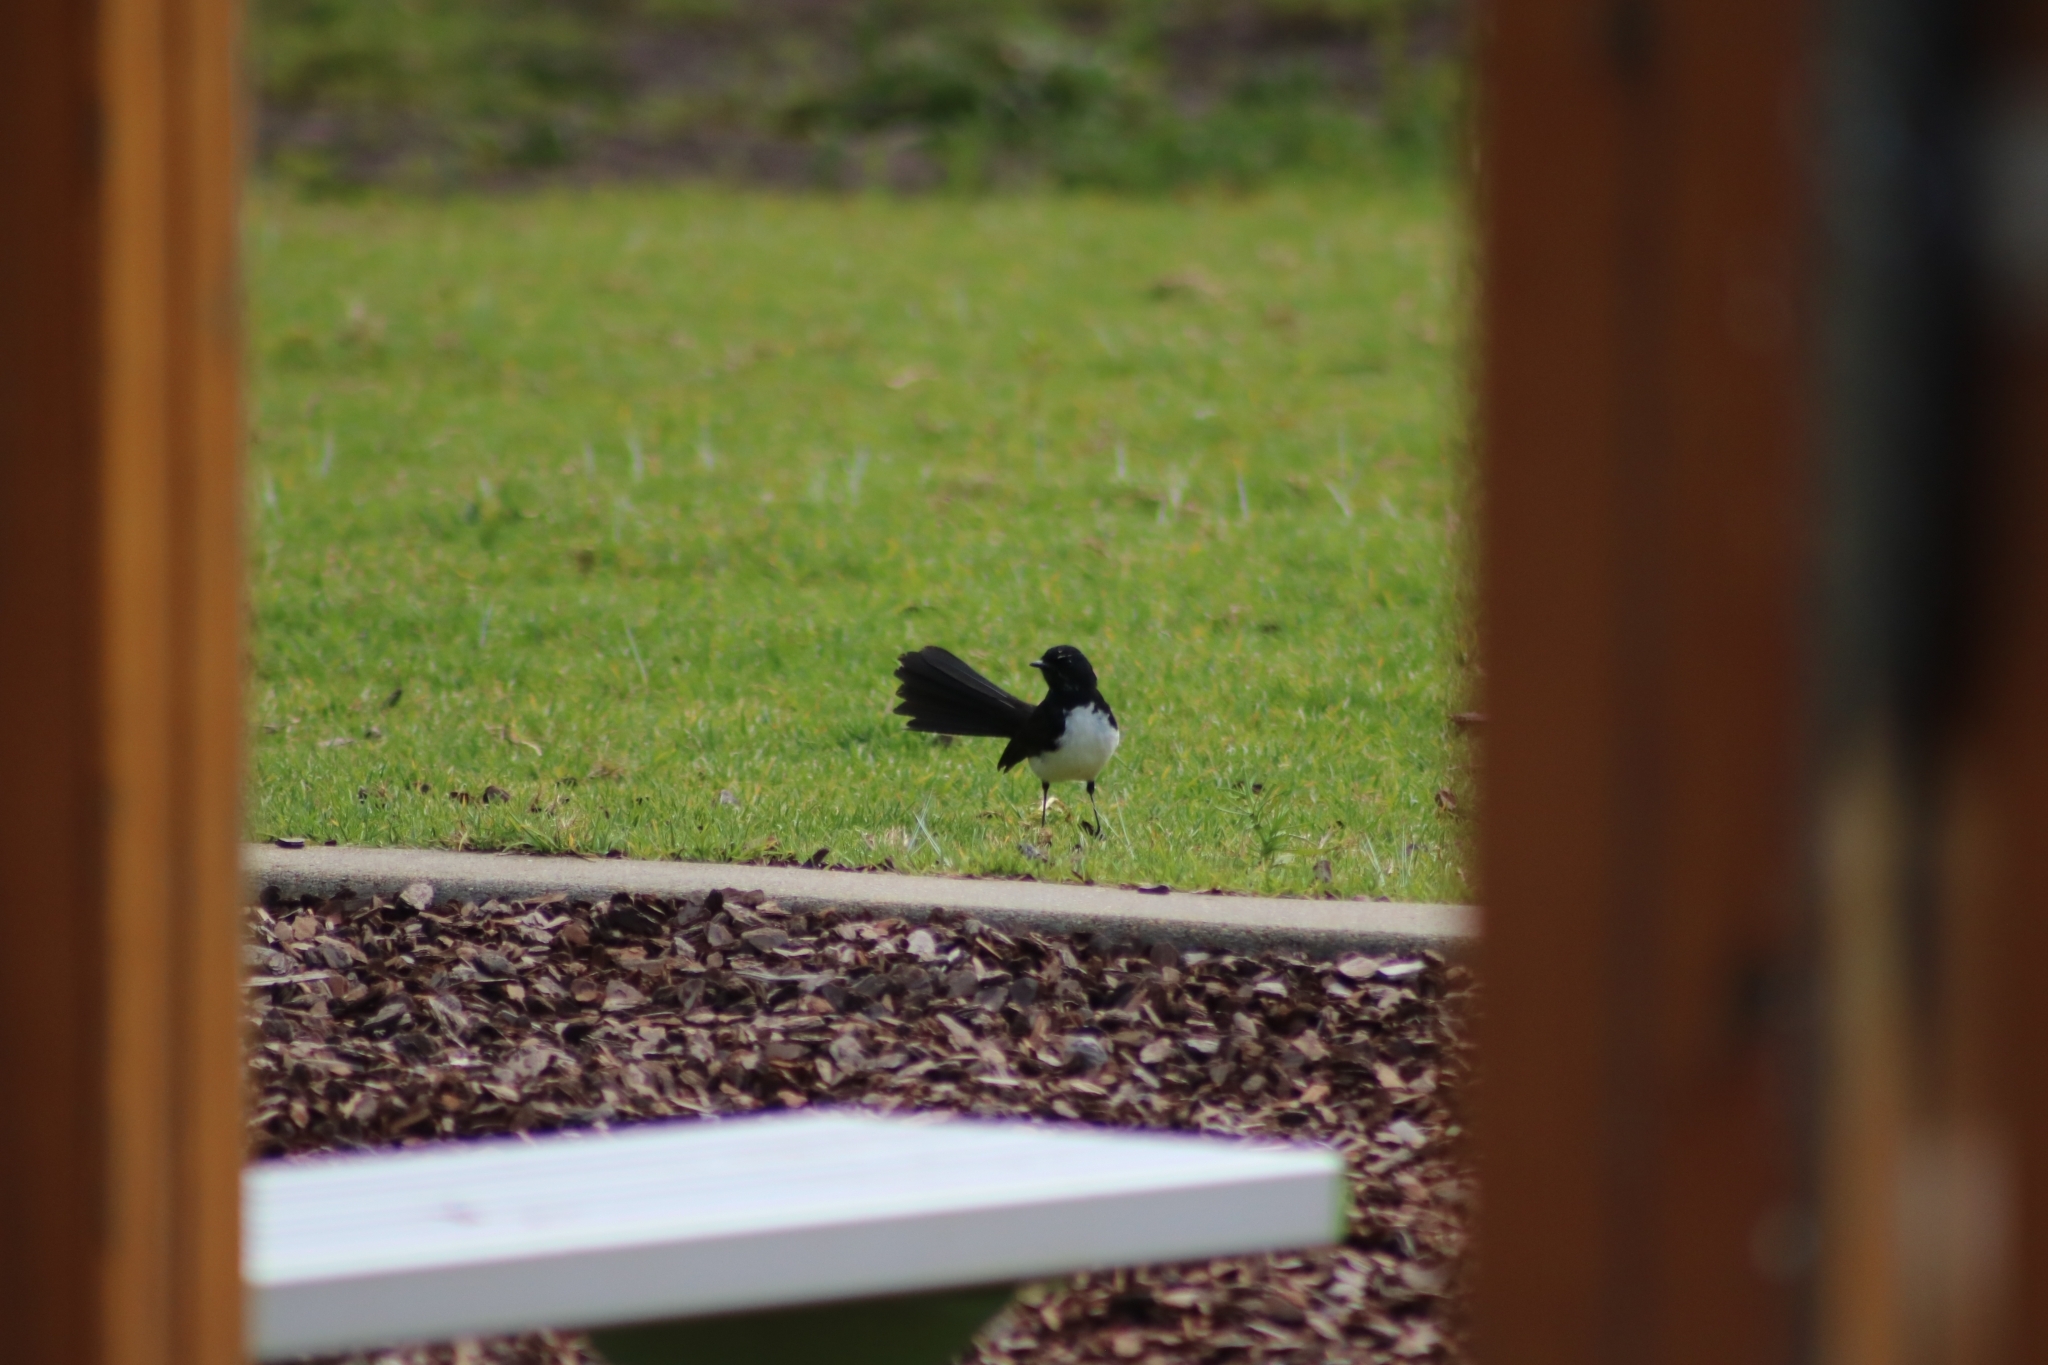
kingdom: Animalia
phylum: Chordata
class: Aves
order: Passeriformes
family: Rhipiduridae
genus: Rhipidura
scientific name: Rhipidura leucophrys
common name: Willie wagtail
